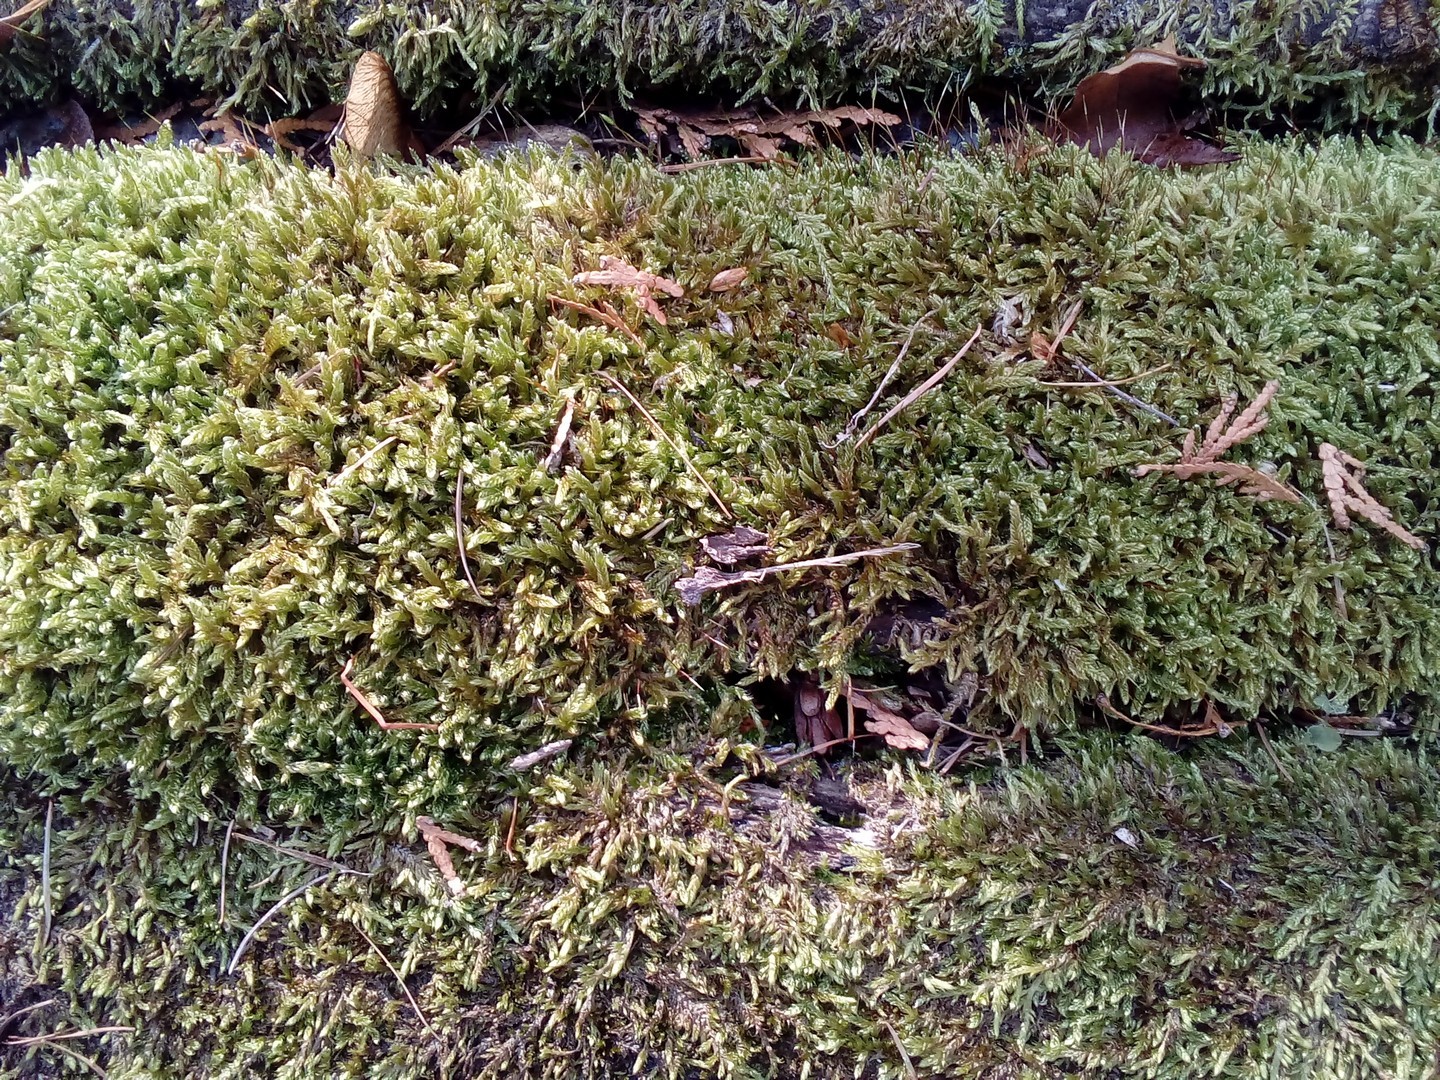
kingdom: Plantae
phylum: Bryophyta
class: Bryopsida
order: Hypnales
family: Hypnaceae
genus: Hypnum
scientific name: Hypnum cupressiforme
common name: Cypress-leaved plait-moss
